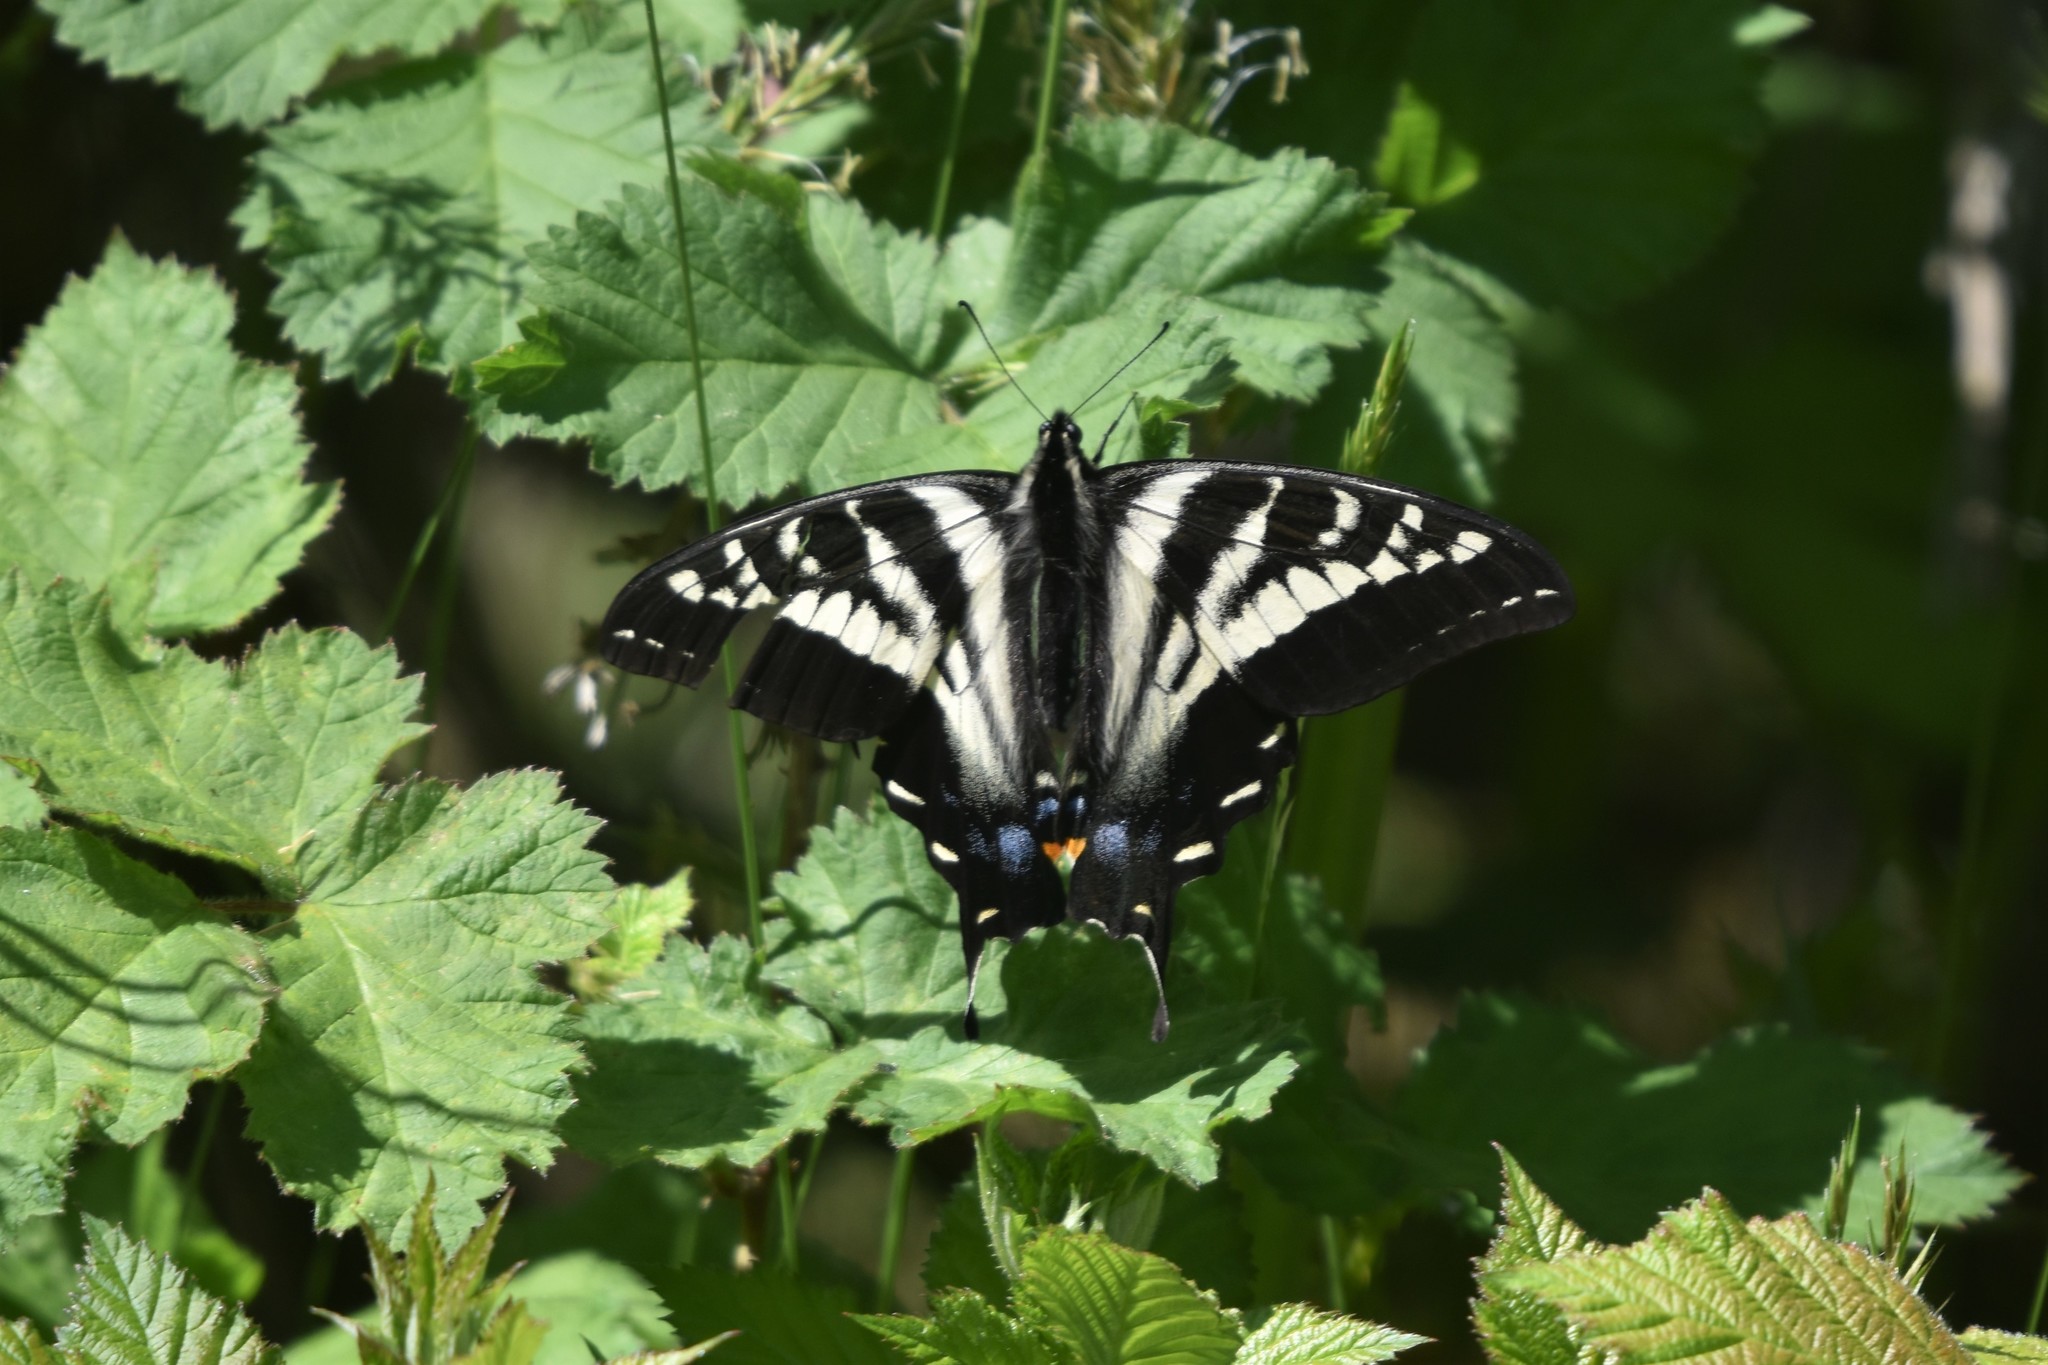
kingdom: Animalia
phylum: Arthropoda
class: Insecta
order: Lepidoptera
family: Papilionidae
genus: Papilio
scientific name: Papilio eurymedon
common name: Pale tiger swallowtail
